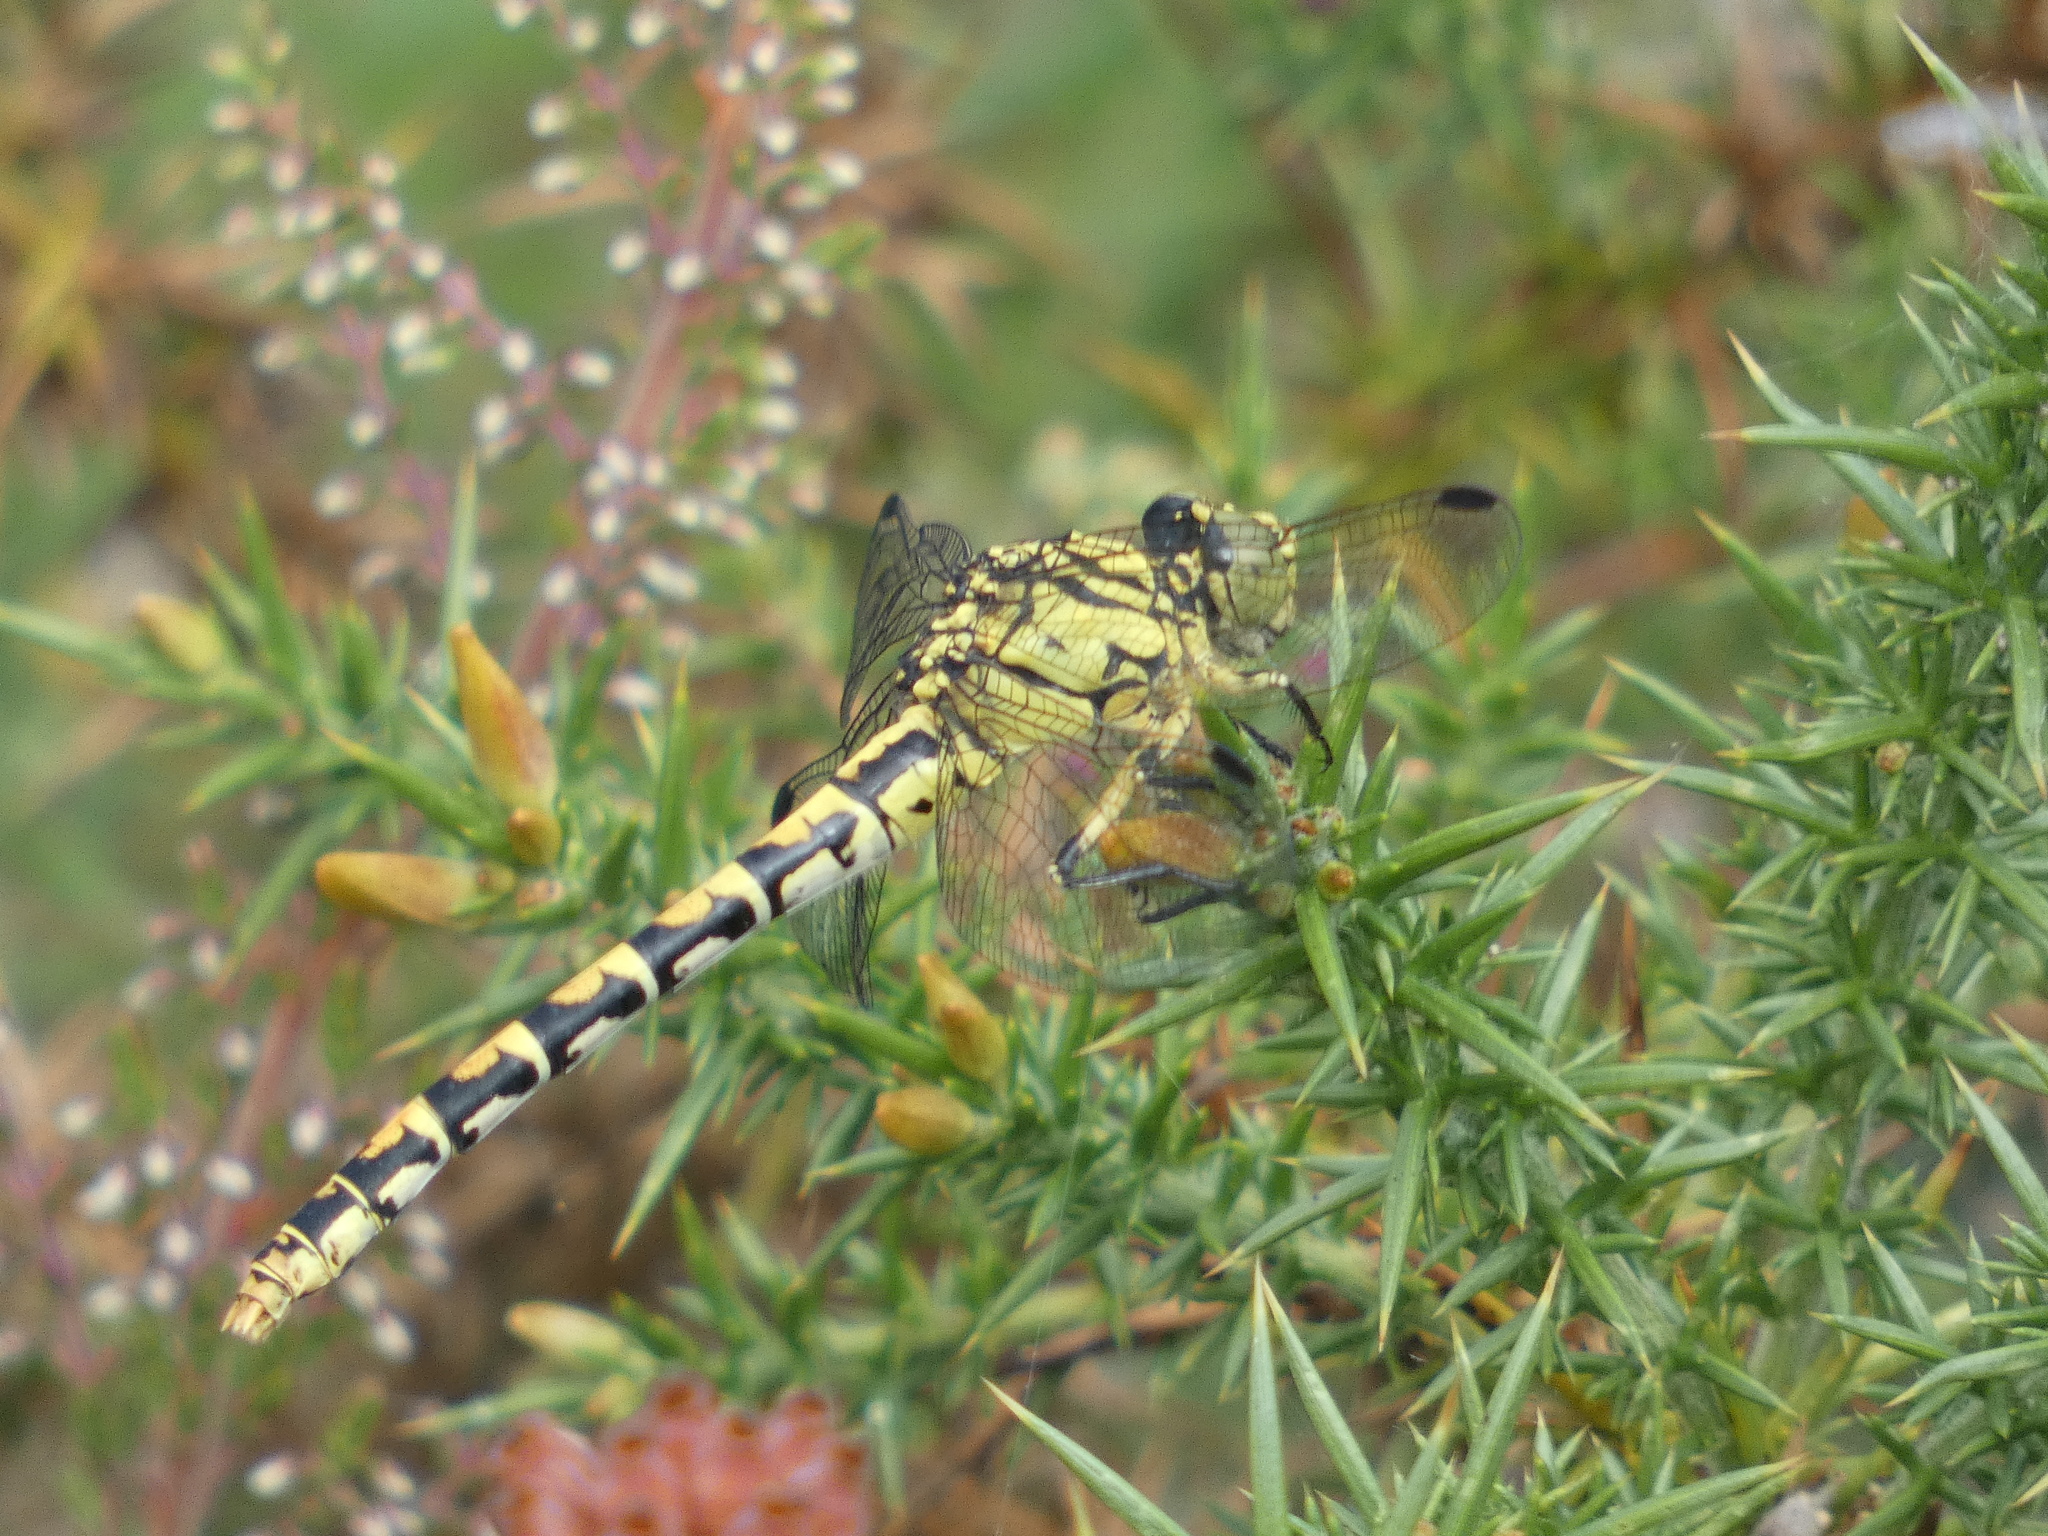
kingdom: Animalia
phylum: Arthropoda
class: Insecta
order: Odonata
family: Gomphidae
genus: Onychogomphus
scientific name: Onychogomphus forcipatus
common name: Small pincertail
